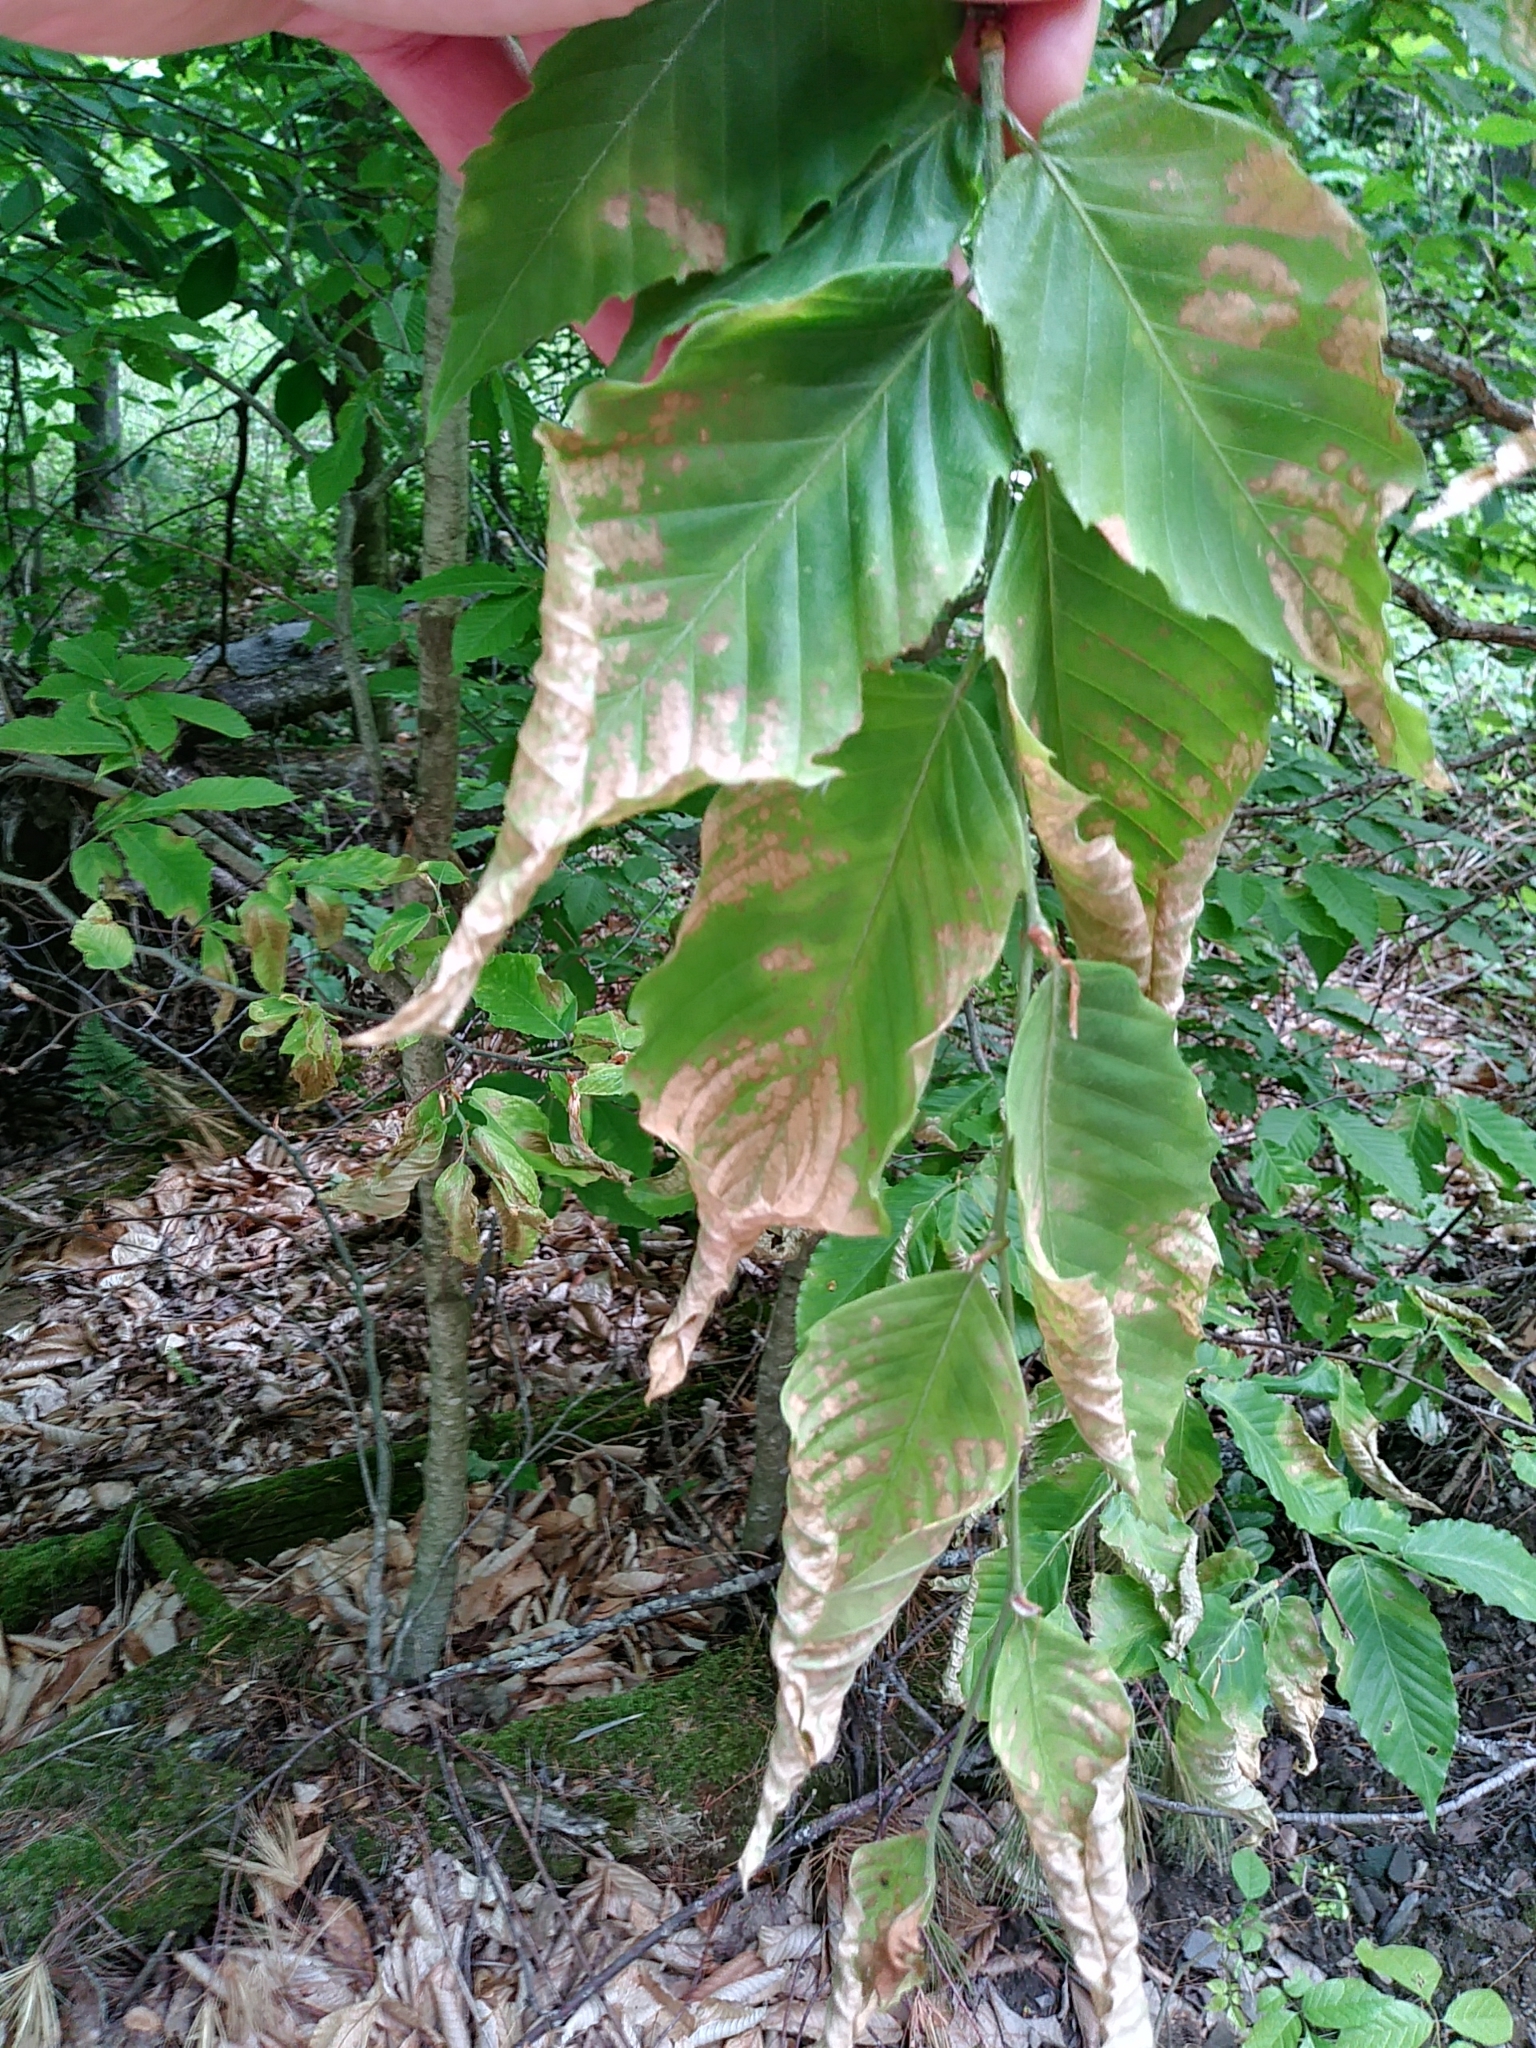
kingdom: Plantae
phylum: Tracheophyta
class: Magnoliopsida
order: Fagales
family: Fagaceae
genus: Fagus
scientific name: Fagus grandifolia
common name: American beech
